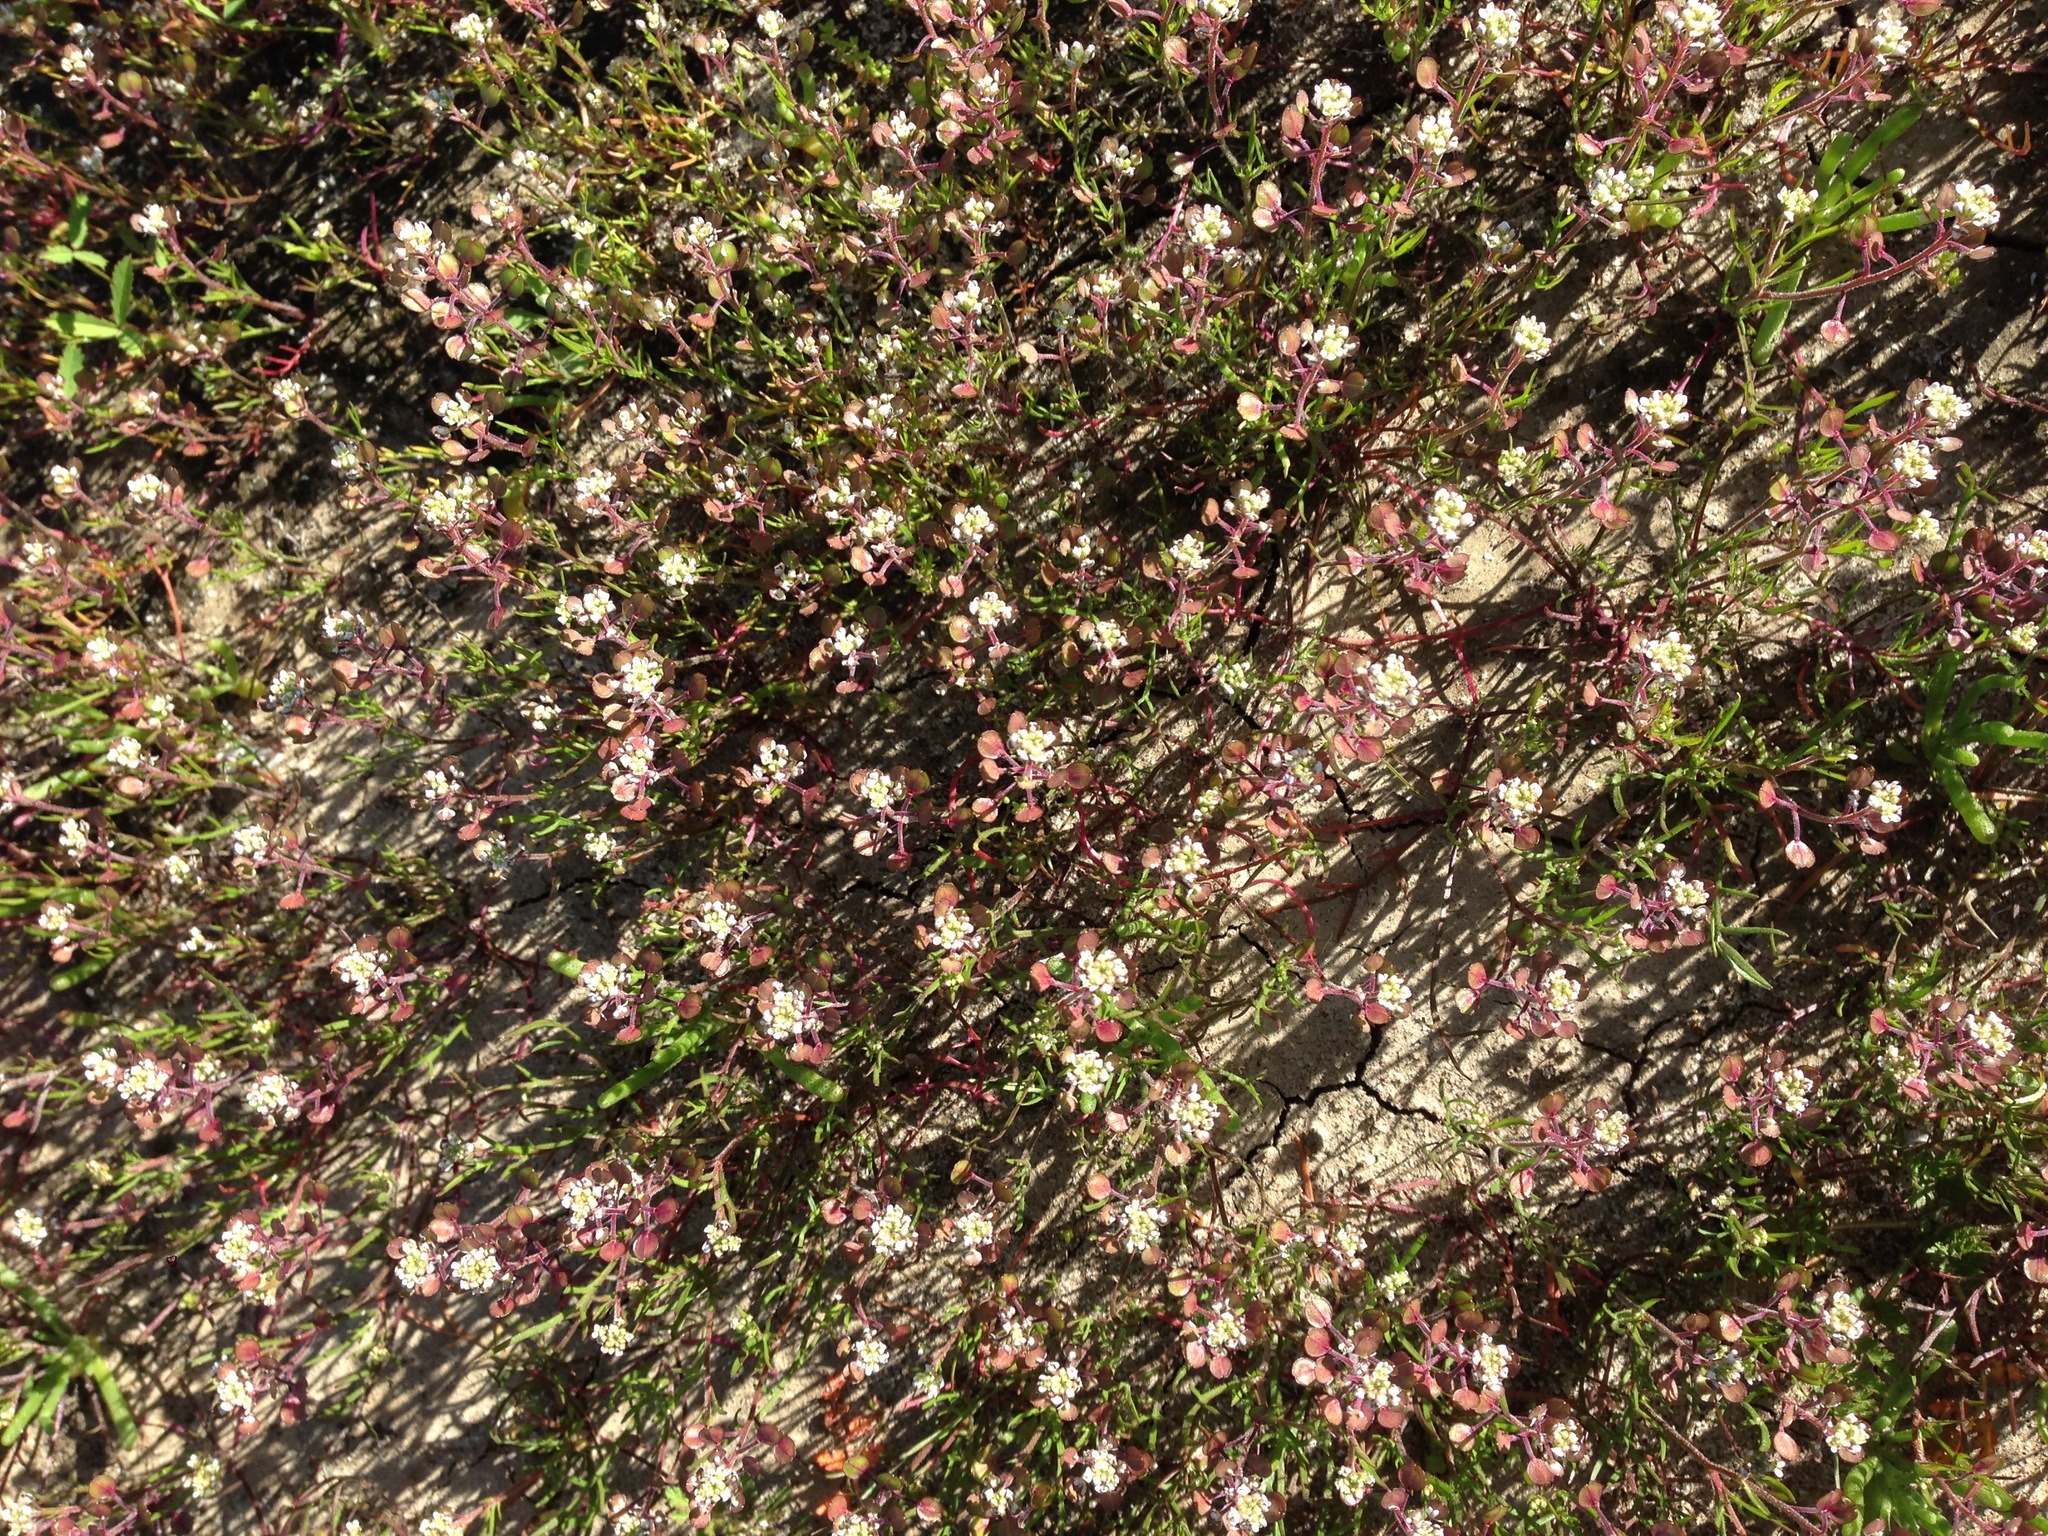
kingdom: Plantae
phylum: Tracheophyta
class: Magnoliopsida
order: Brassicales
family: Brassicaceae
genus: Lepidium
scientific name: Lepidium nitidum
